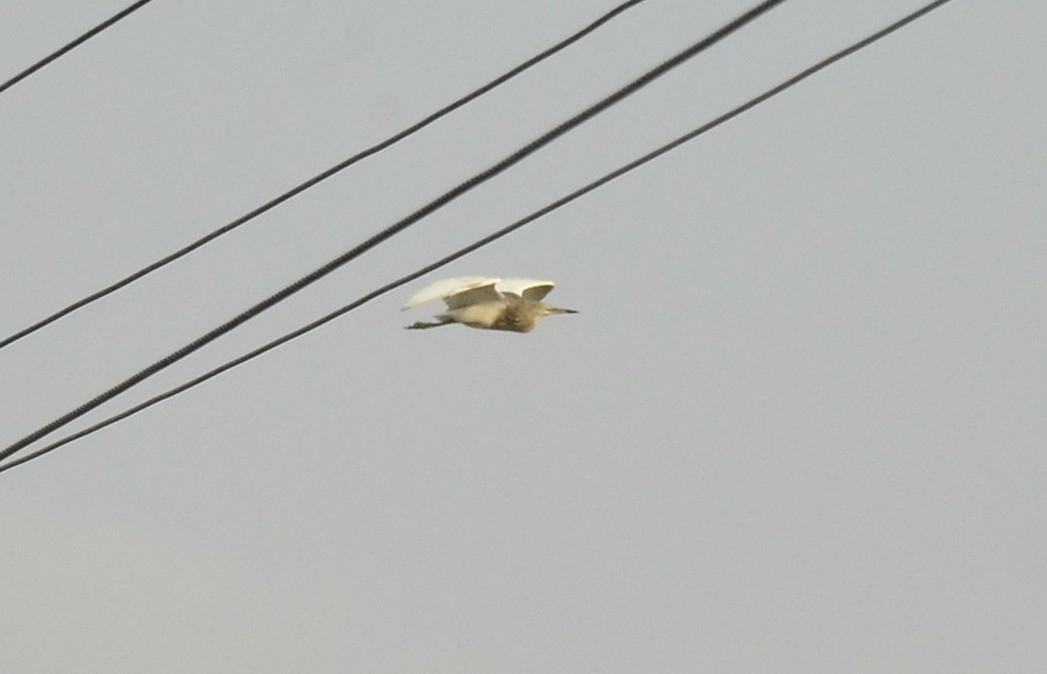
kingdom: Animalia
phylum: Chordata
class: Aves
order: Pelecaniformes
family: Ardeidae
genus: Ardeola
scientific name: Ardeola grayii
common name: Indian pond heron
